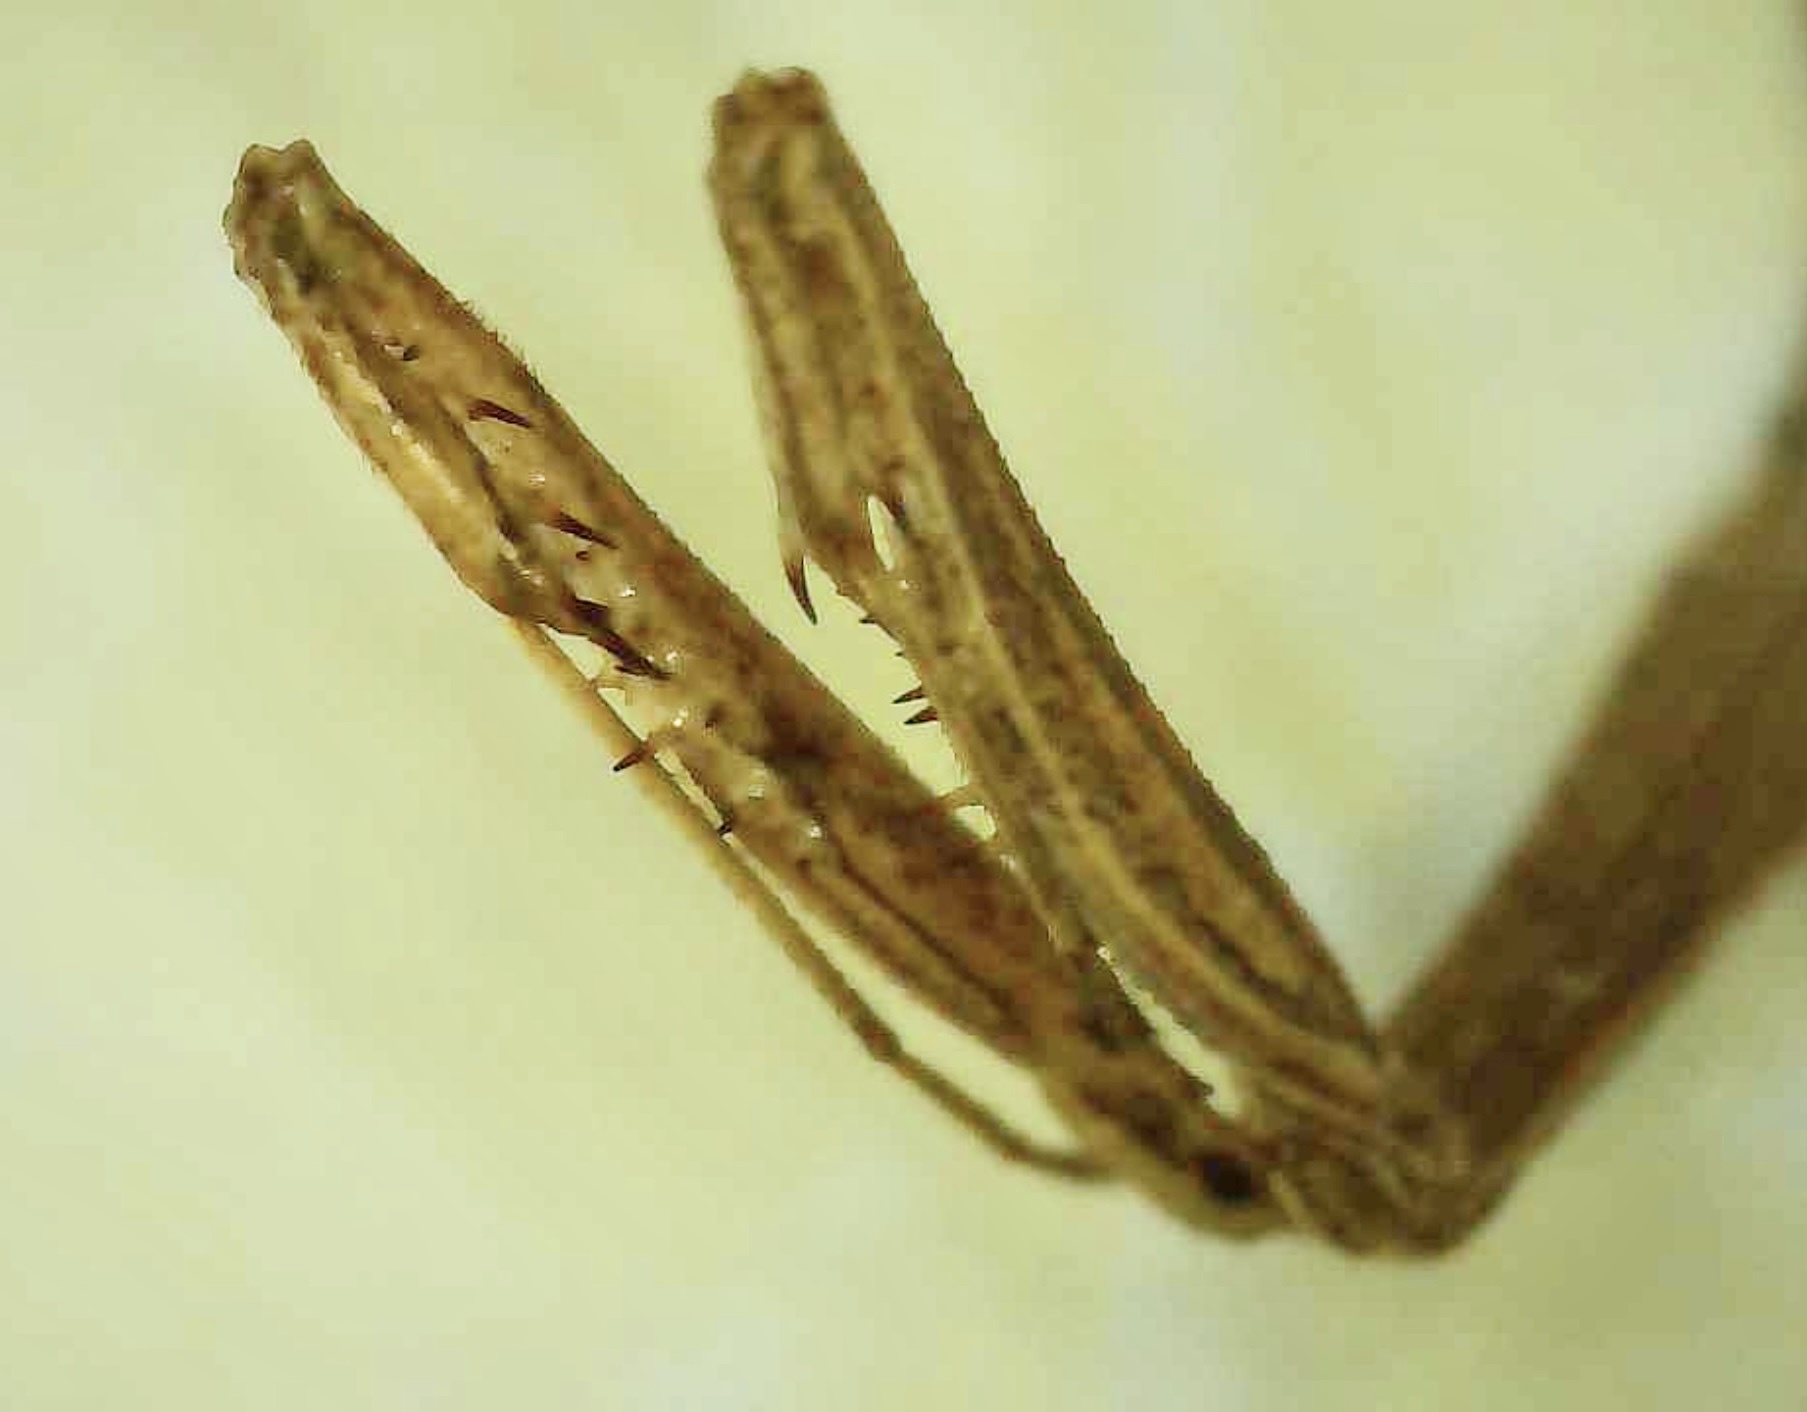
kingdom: Animalia
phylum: Arthropoda
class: Insecta
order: Mantodea
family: Thespidae
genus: Thespis
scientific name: Thespis parva
